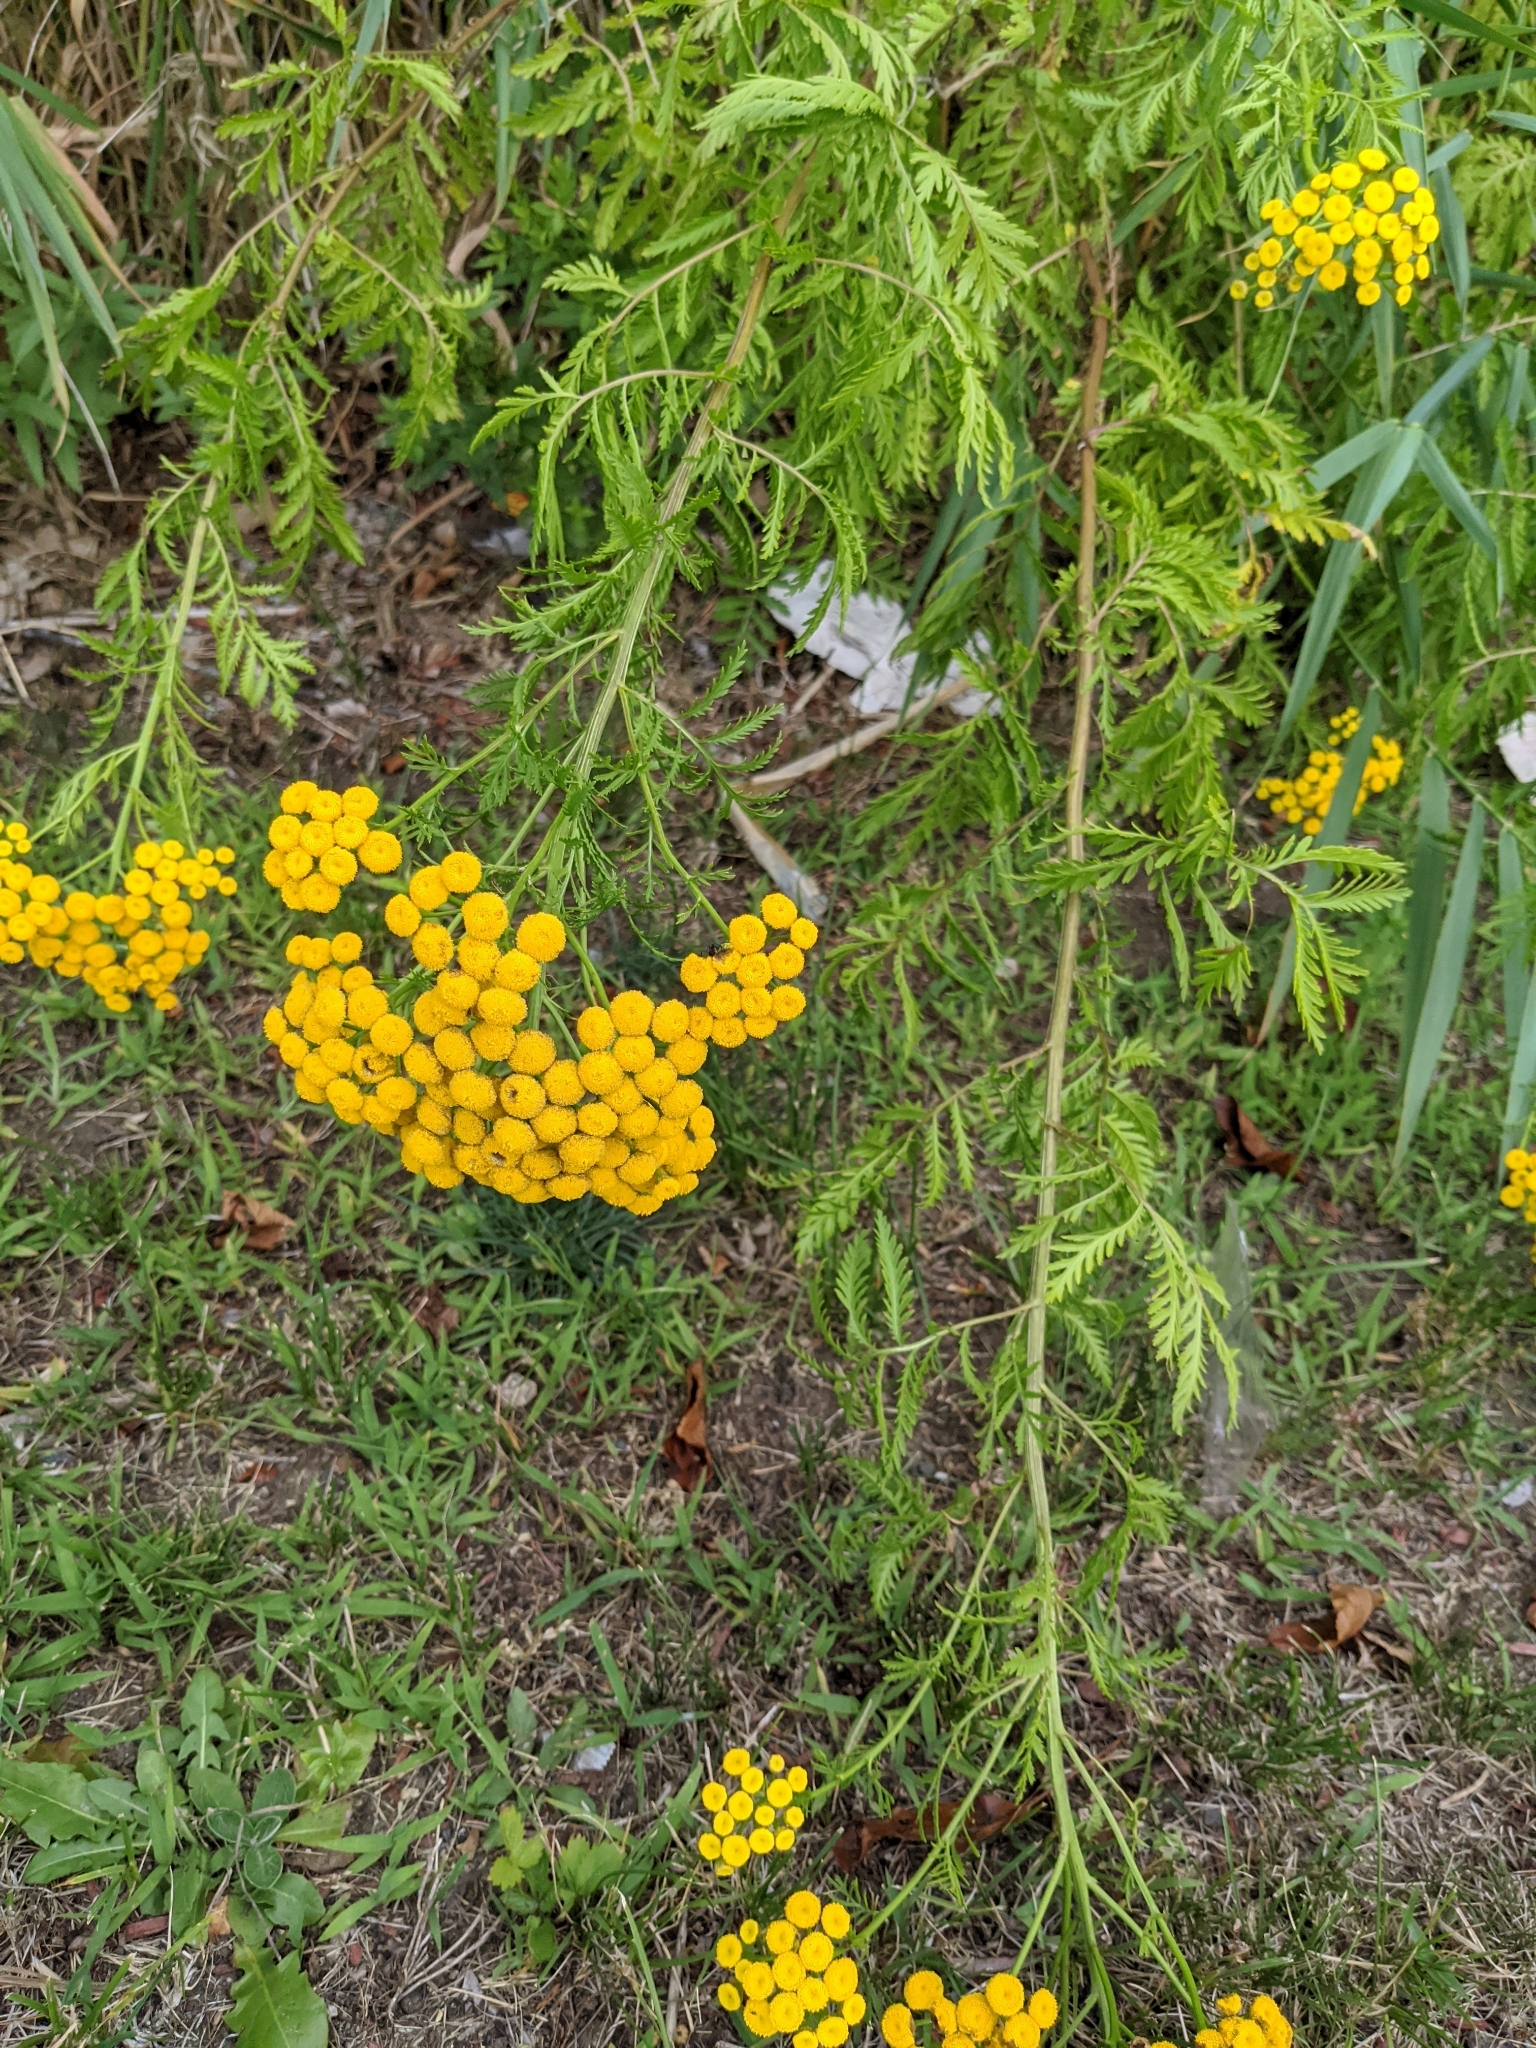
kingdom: Plantae
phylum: Tracheophyta
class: Magnoliopsida
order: Asterales
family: Asteraceae
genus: Tanacetum
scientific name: Tanacetum vulgare
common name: Common tansy
